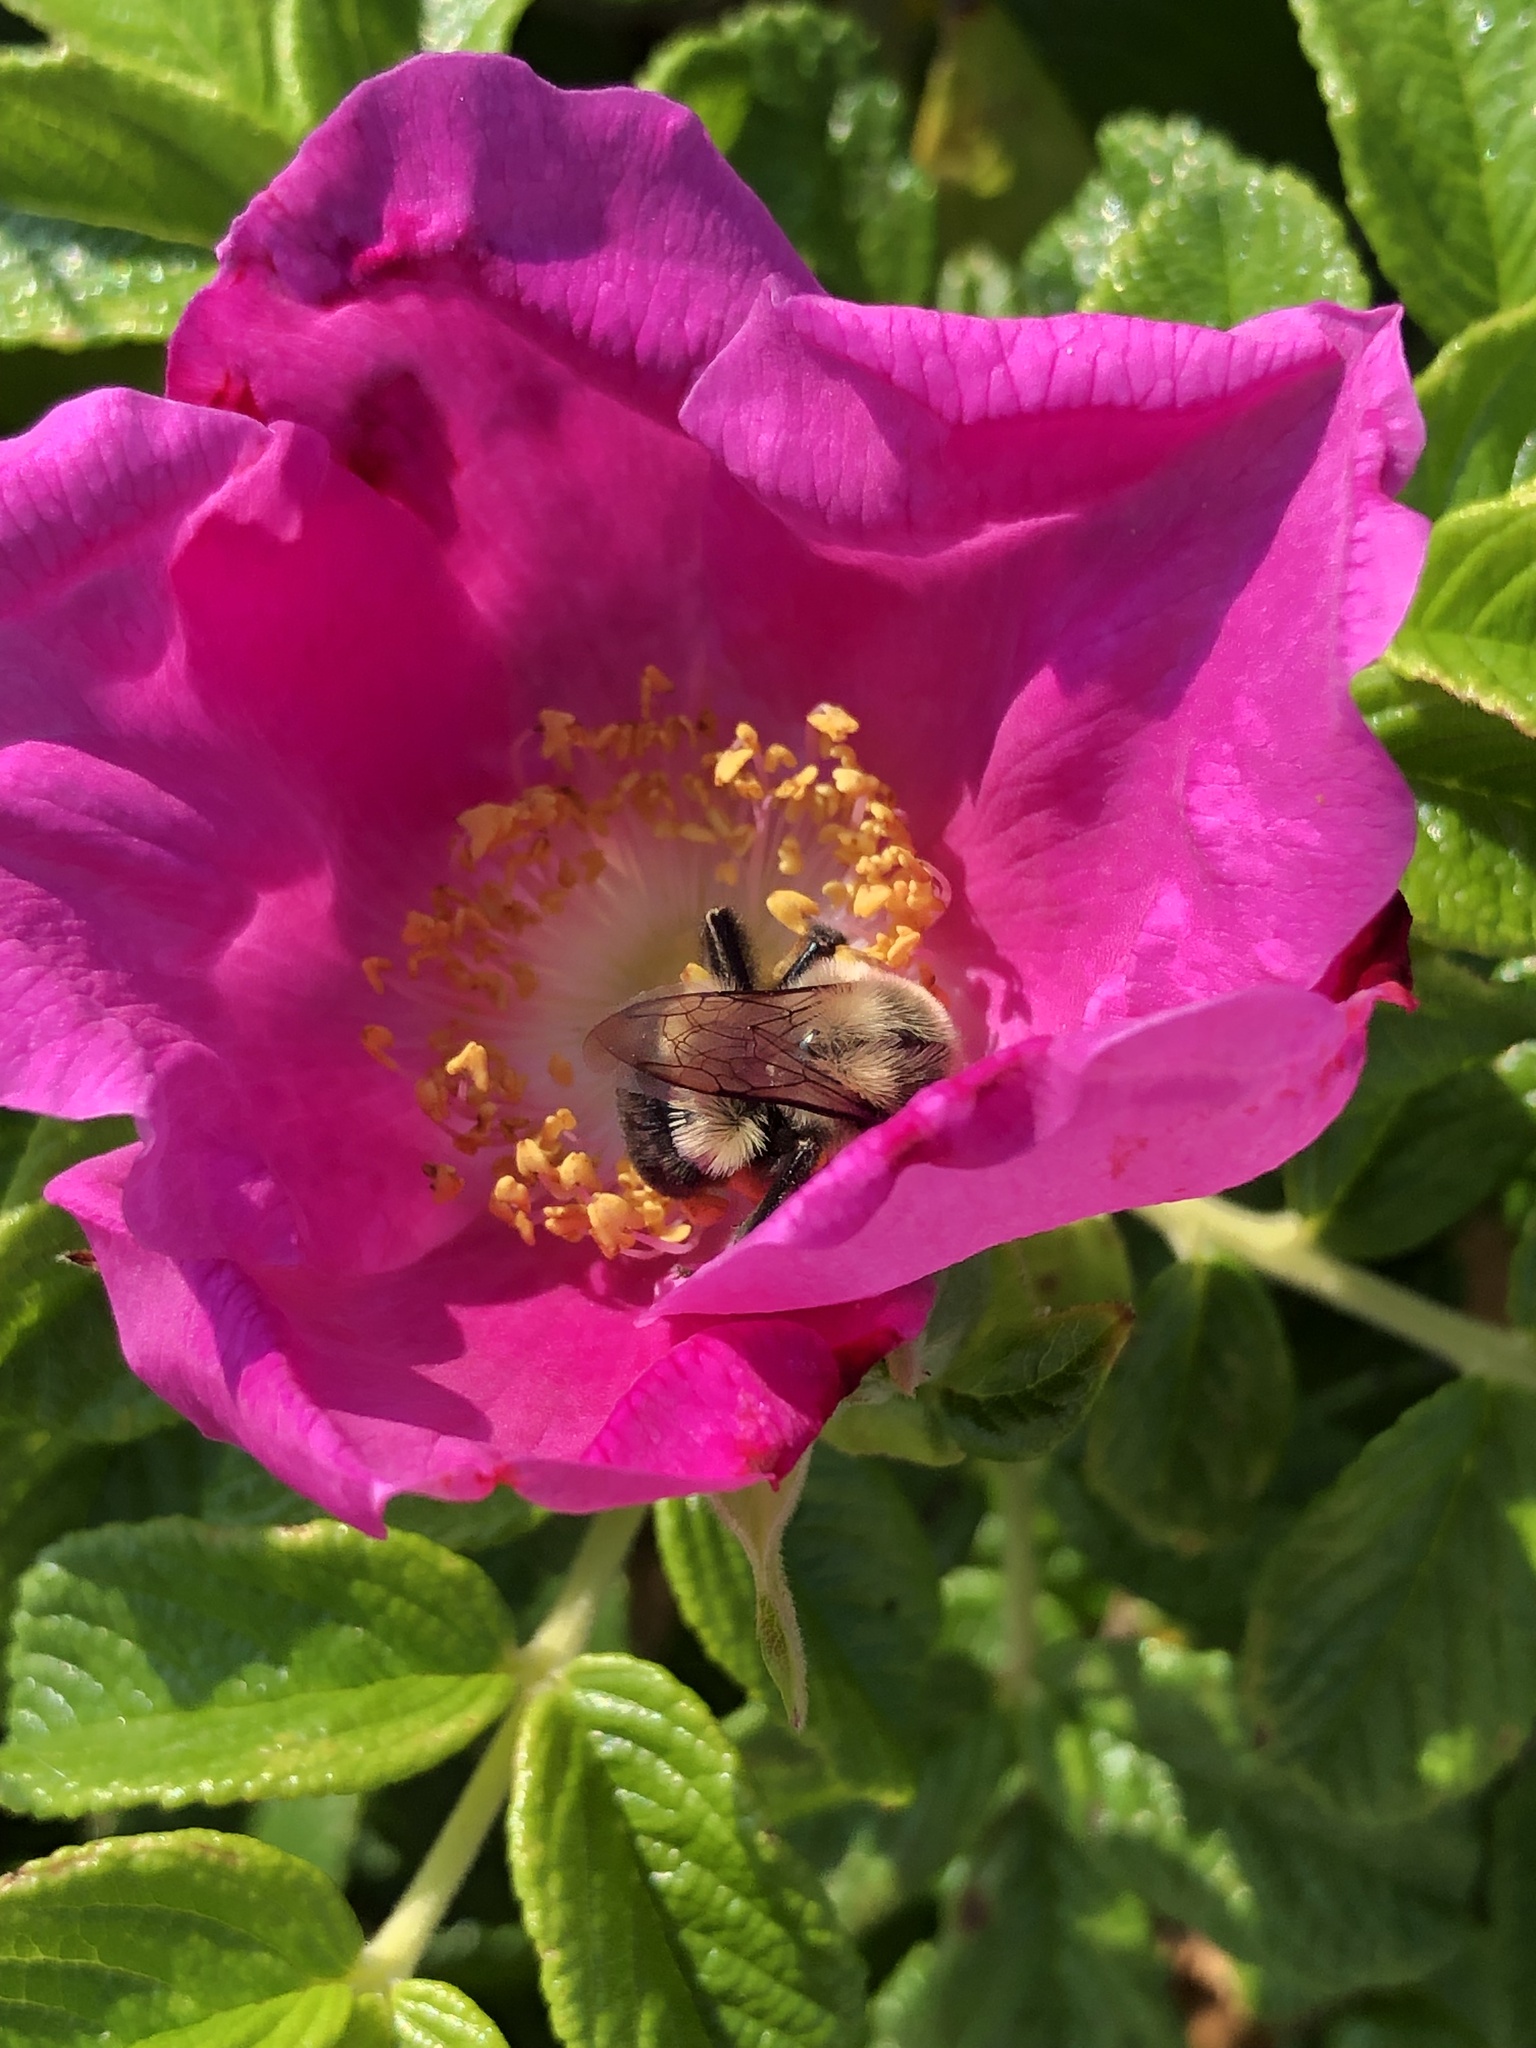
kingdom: Animalia
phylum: Arthropoda
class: Insecta
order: Hymenoptera
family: Apidae
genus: Bombus
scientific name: Bombus impatiens
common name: Common eastern bumble bee
